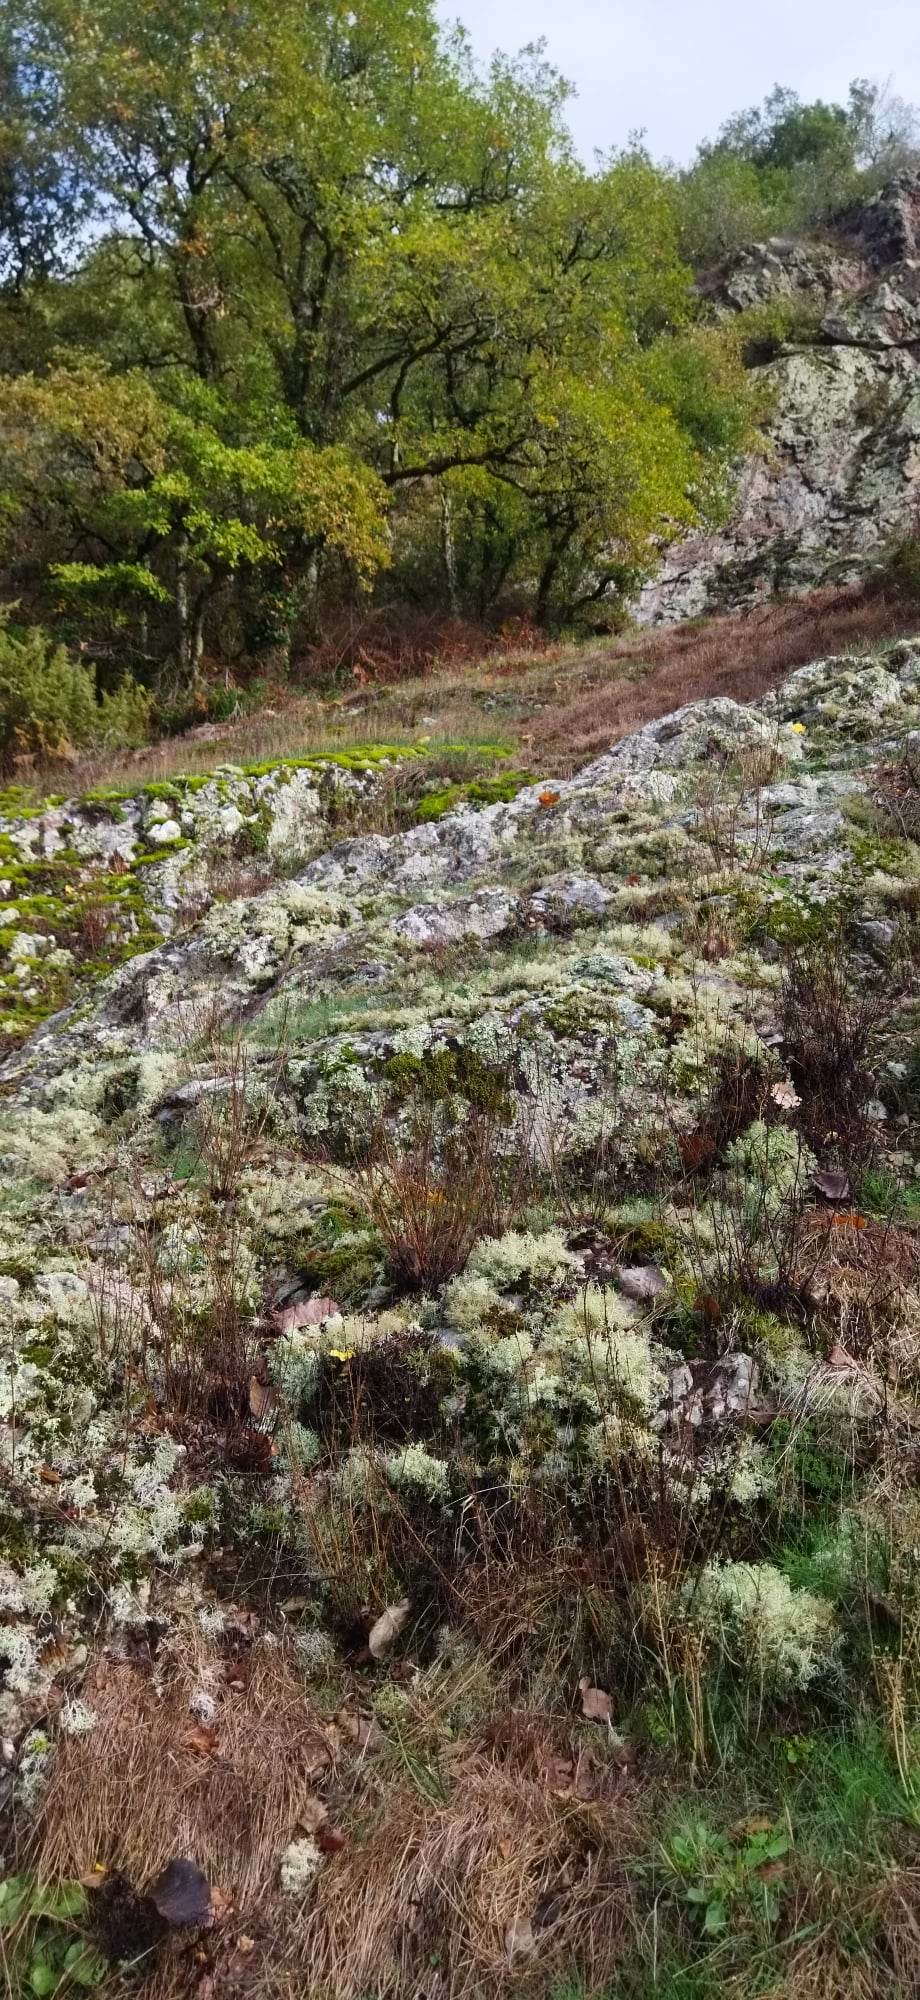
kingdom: Plantae
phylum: Tracheophyta
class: Magnoliopsida
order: Lamiales
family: Plantaginaceae
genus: Asarina
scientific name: Asarina procumbens
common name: Trailing snapdragon
